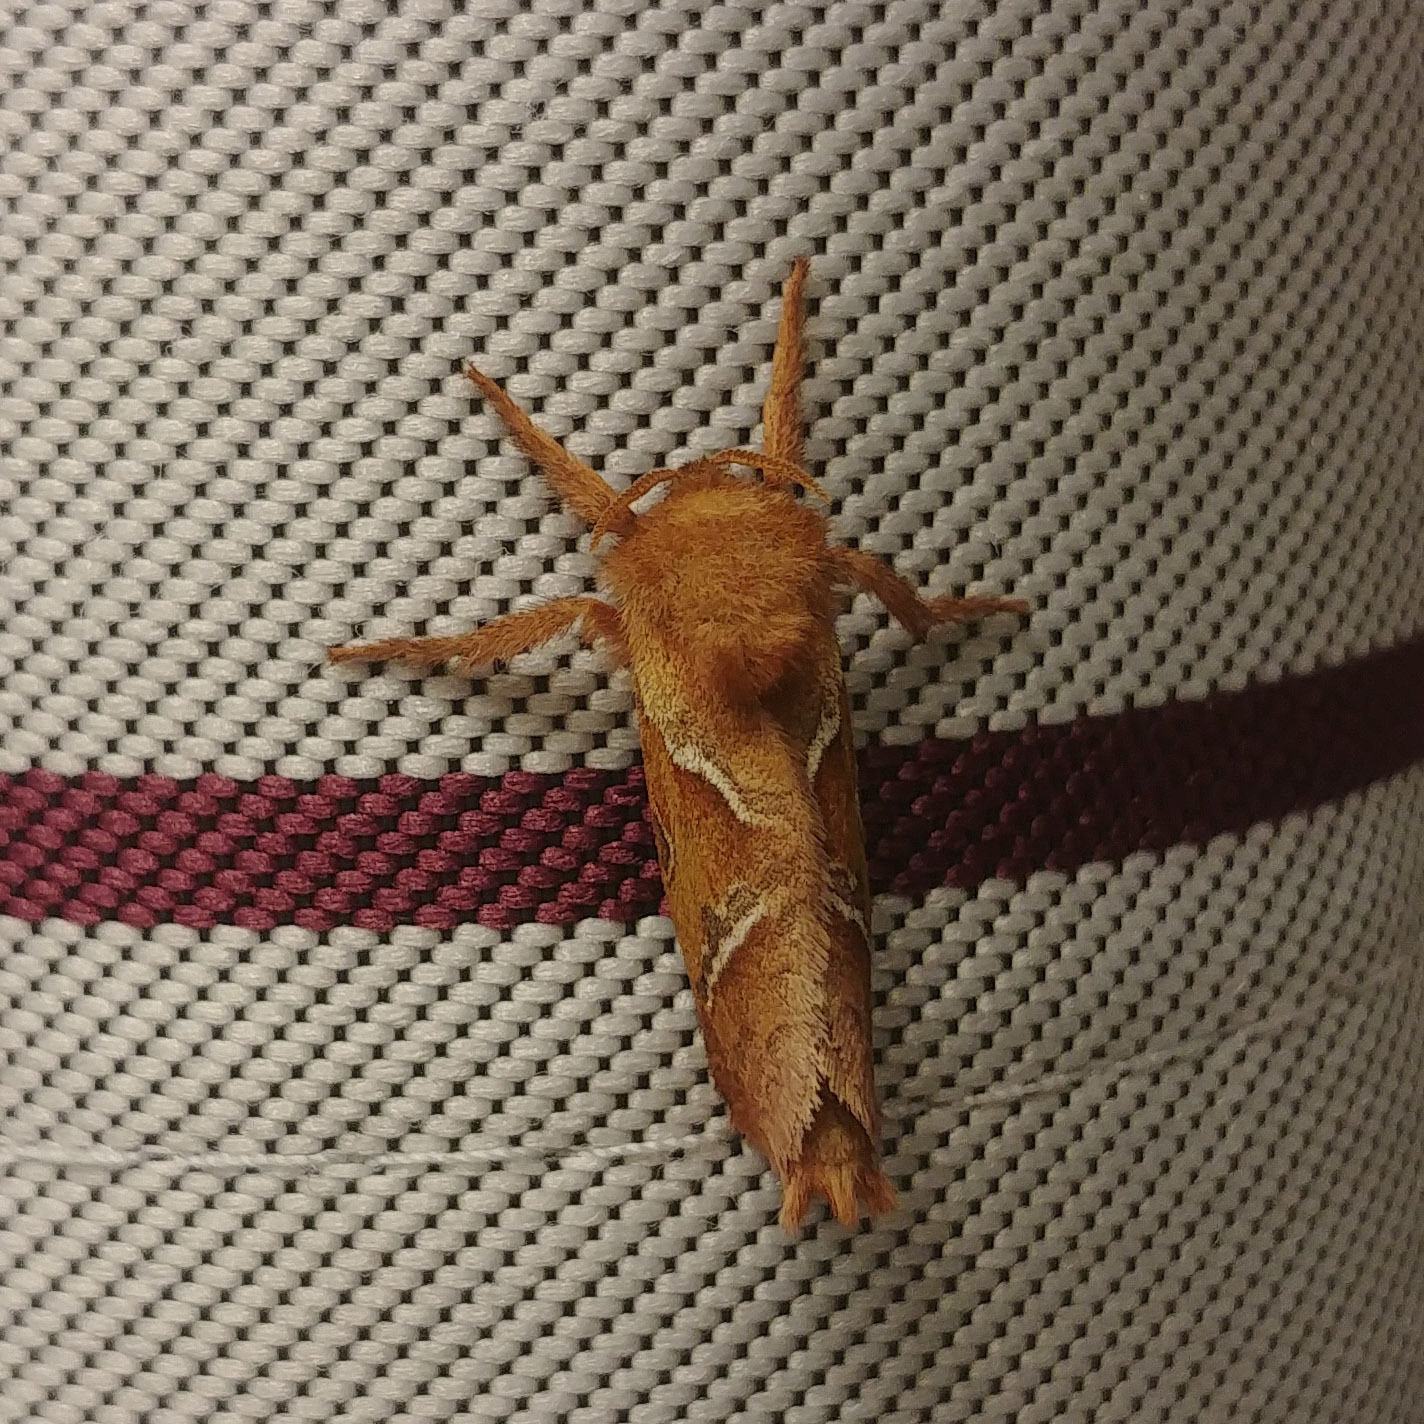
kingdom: Animalia
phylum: Arthropoda
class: Insecta
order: Lepidoptera
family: Hepialidae
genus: Triodia
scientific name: Triodia sylvina
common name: Orange swift
